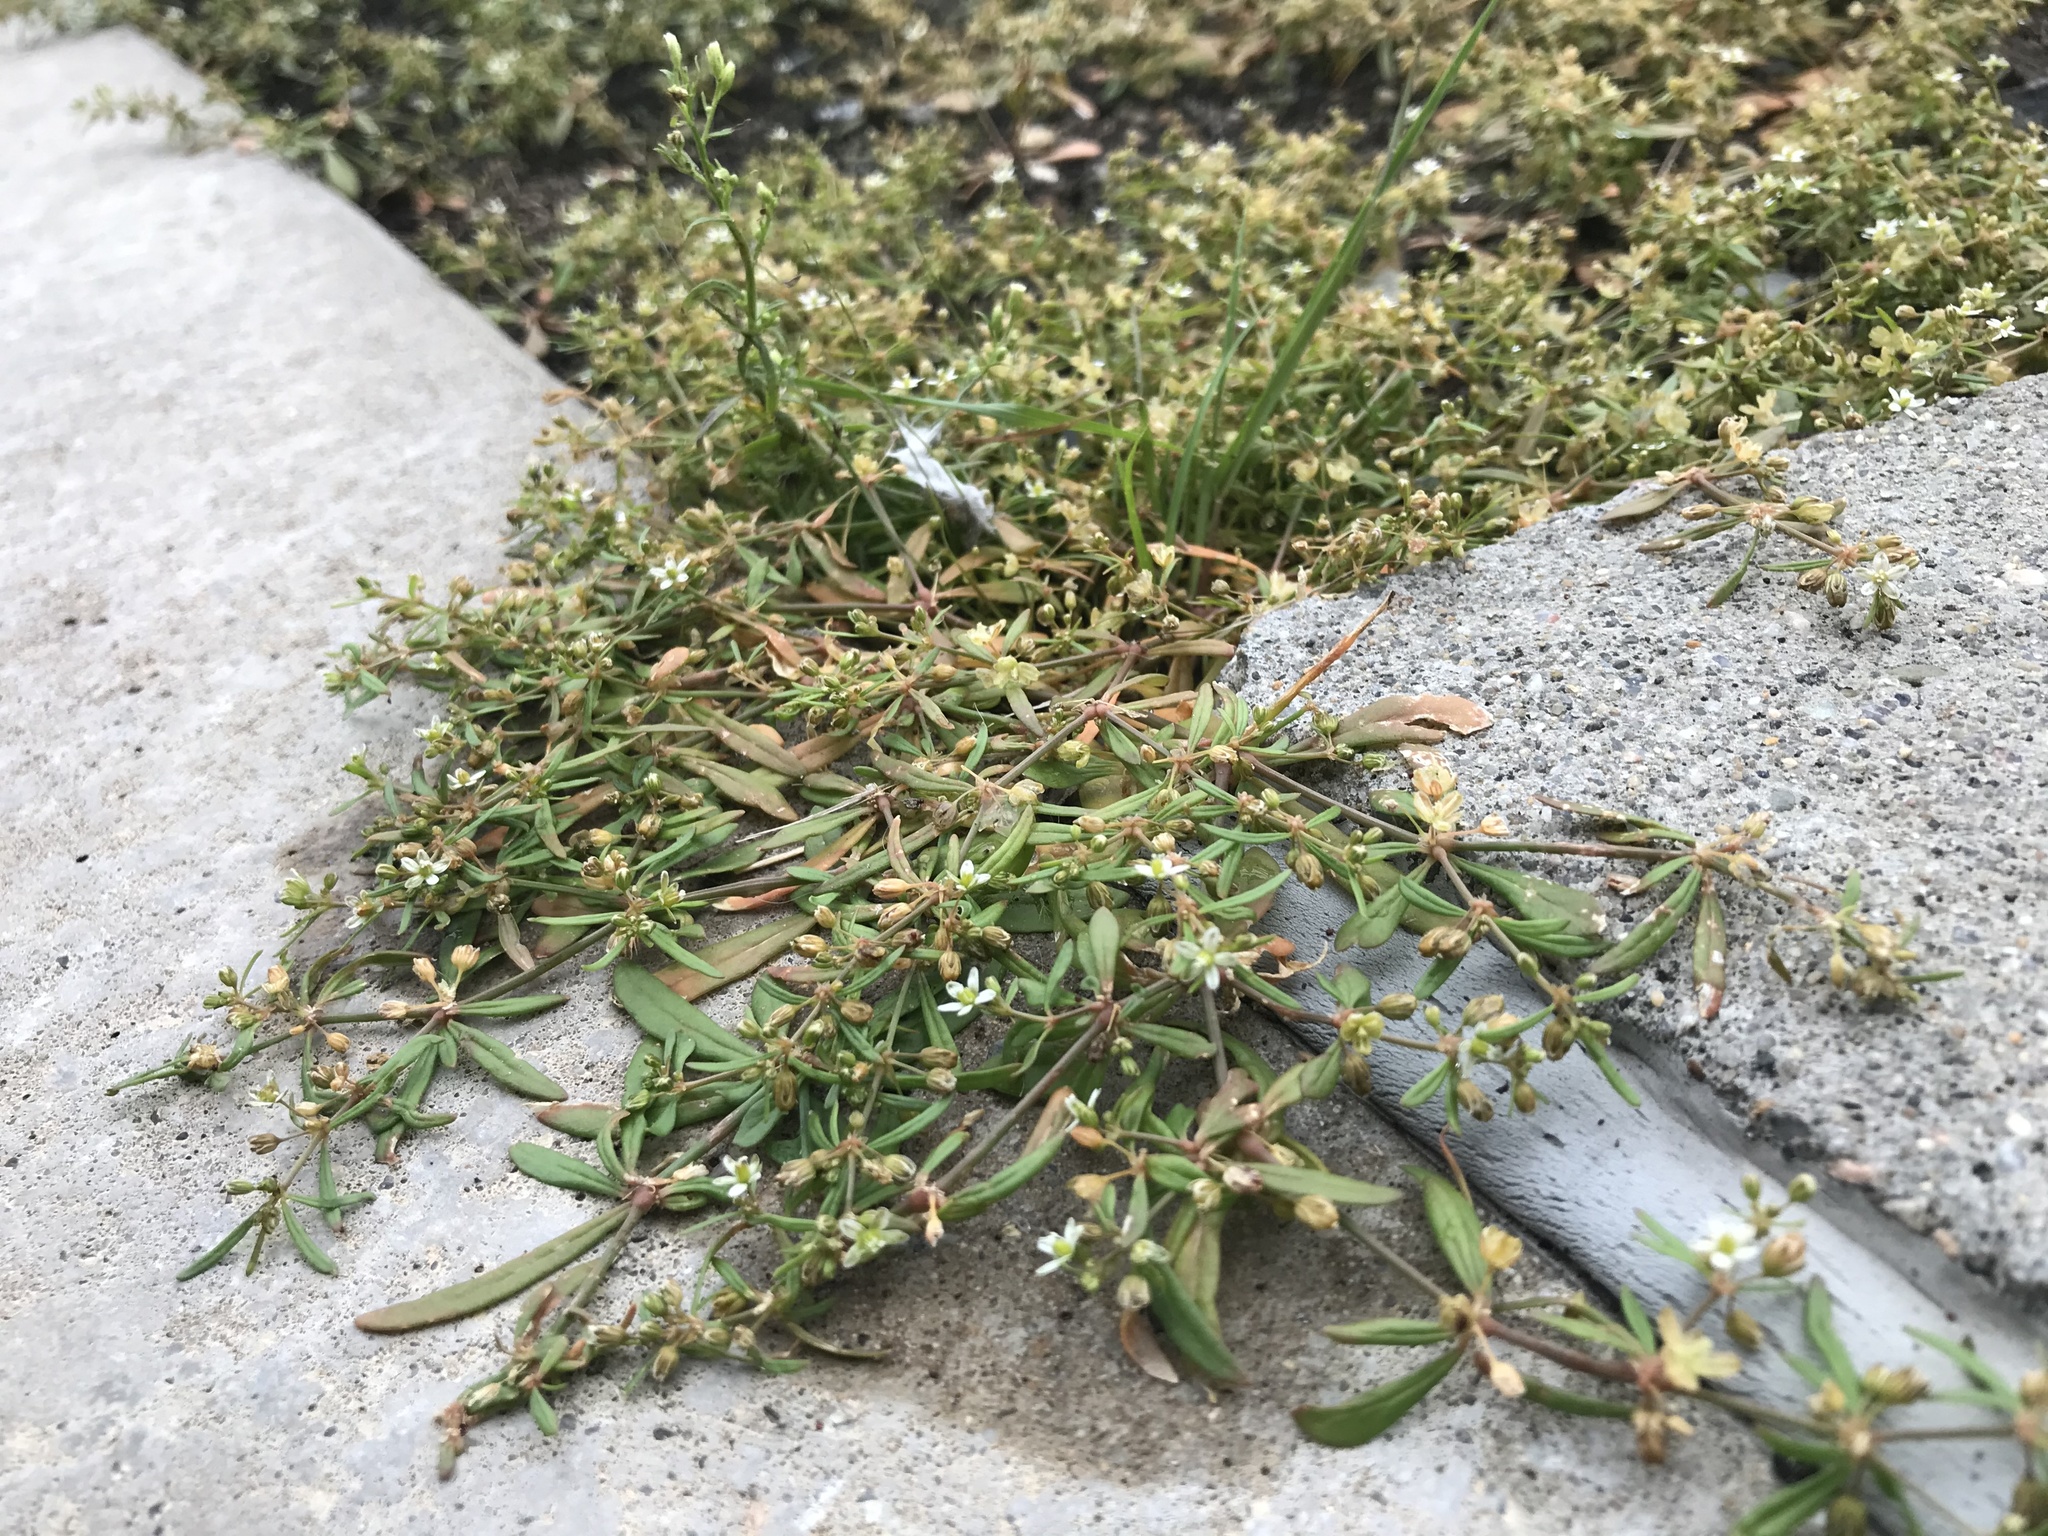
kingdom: Plantae
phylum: Tracheophyta
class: Magnoliopsida
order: Caryophyllales
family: Molluginaceae
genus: Mollugo
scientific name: Mollugo verticillata
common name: Green carpetweed
